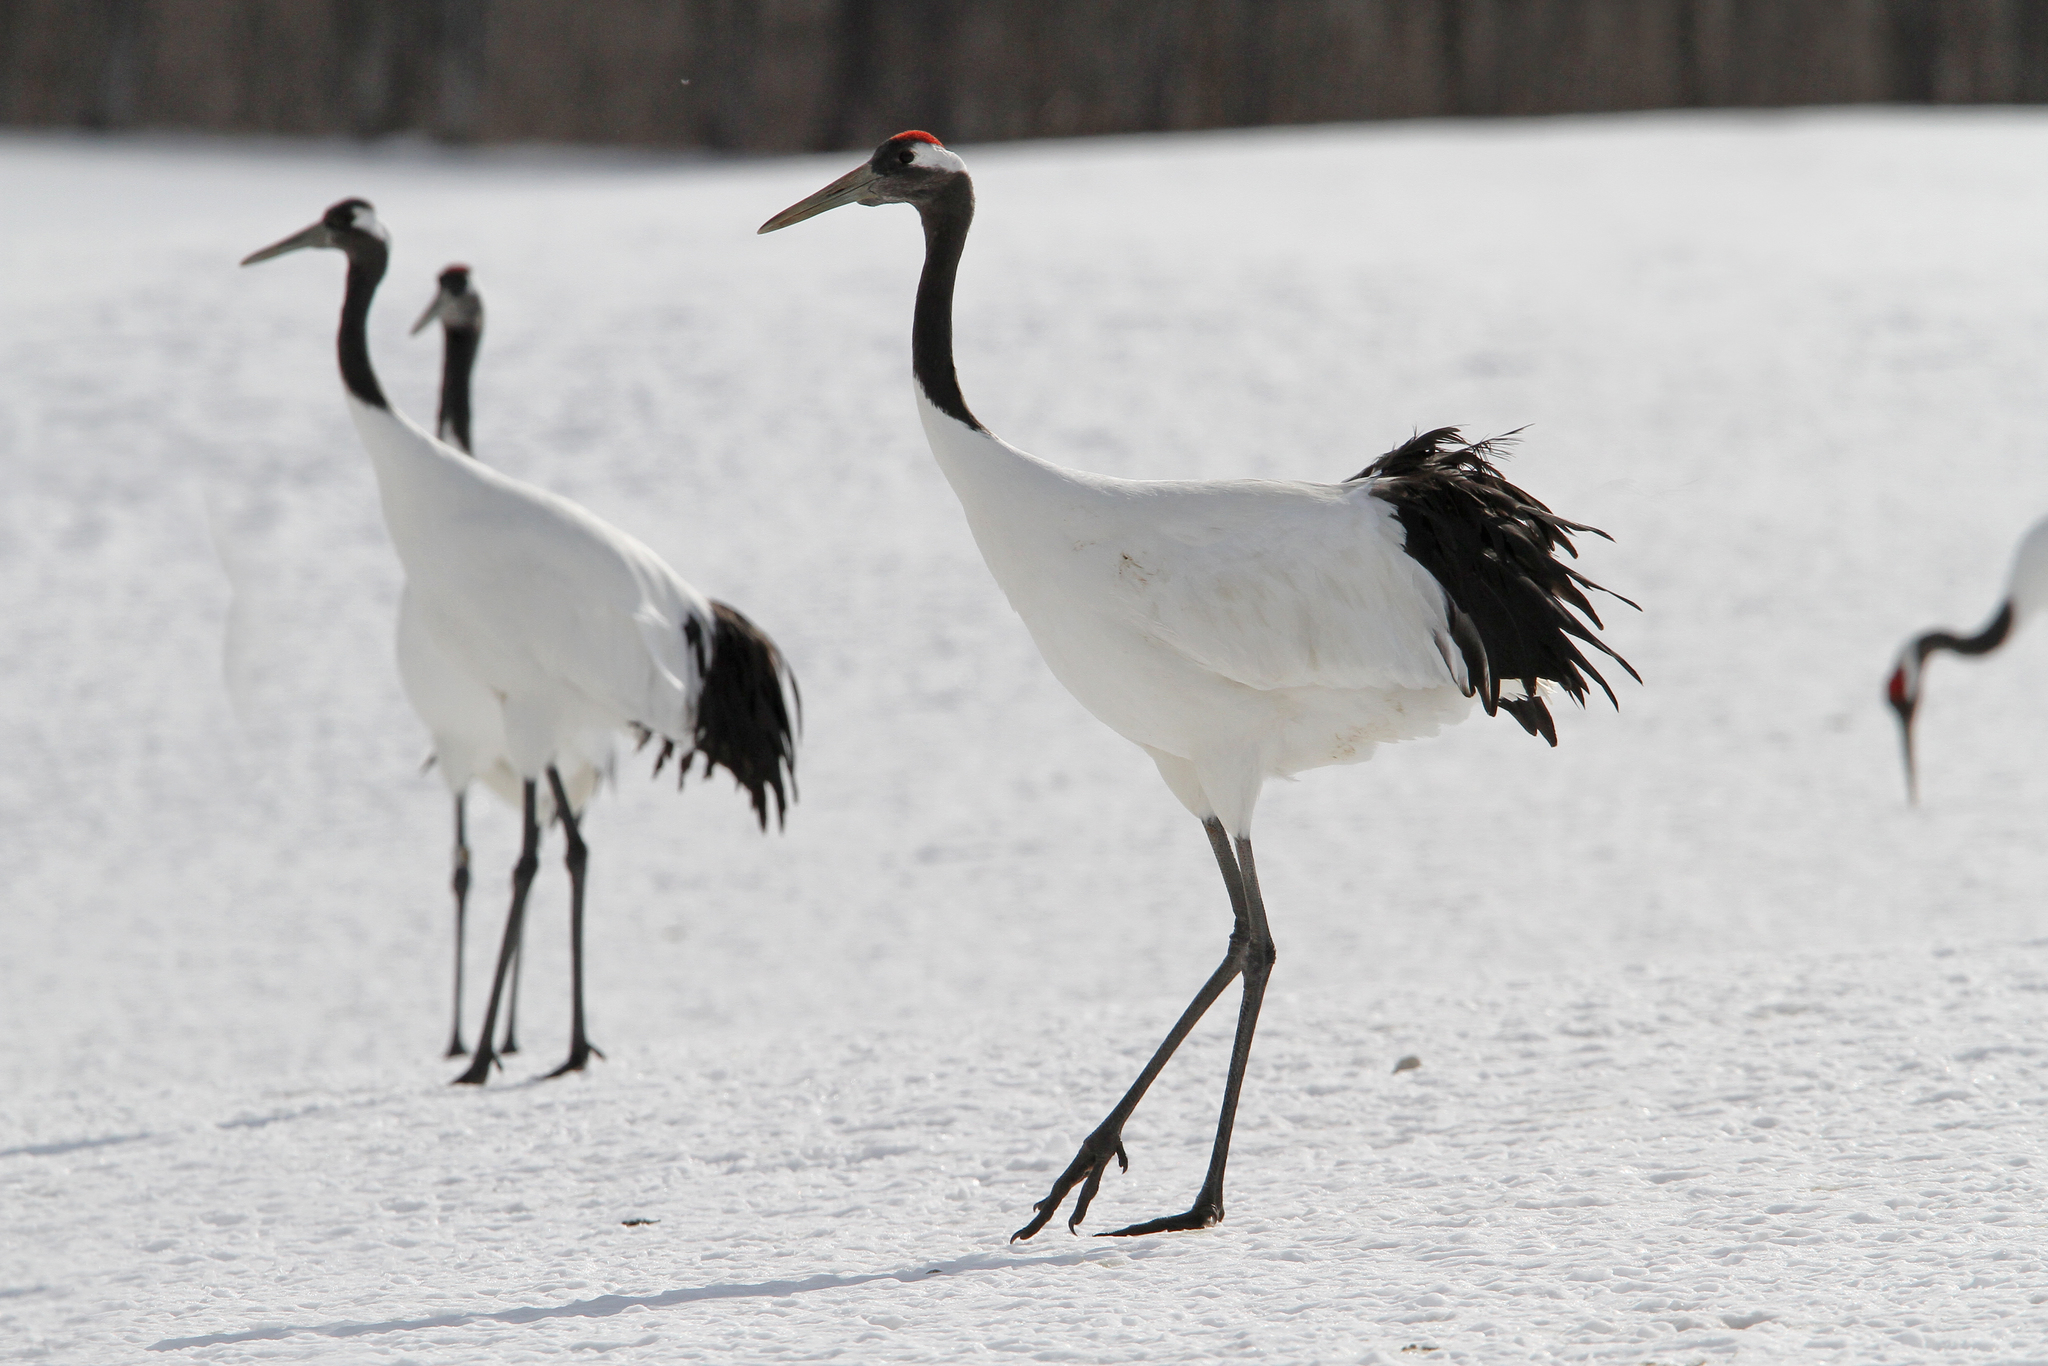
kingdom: Animalia
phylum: Chordata
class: Aves
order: Gruiformes
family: Gruidae
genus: Grus
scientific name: Grus japonensis
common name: Red-crowned crane
